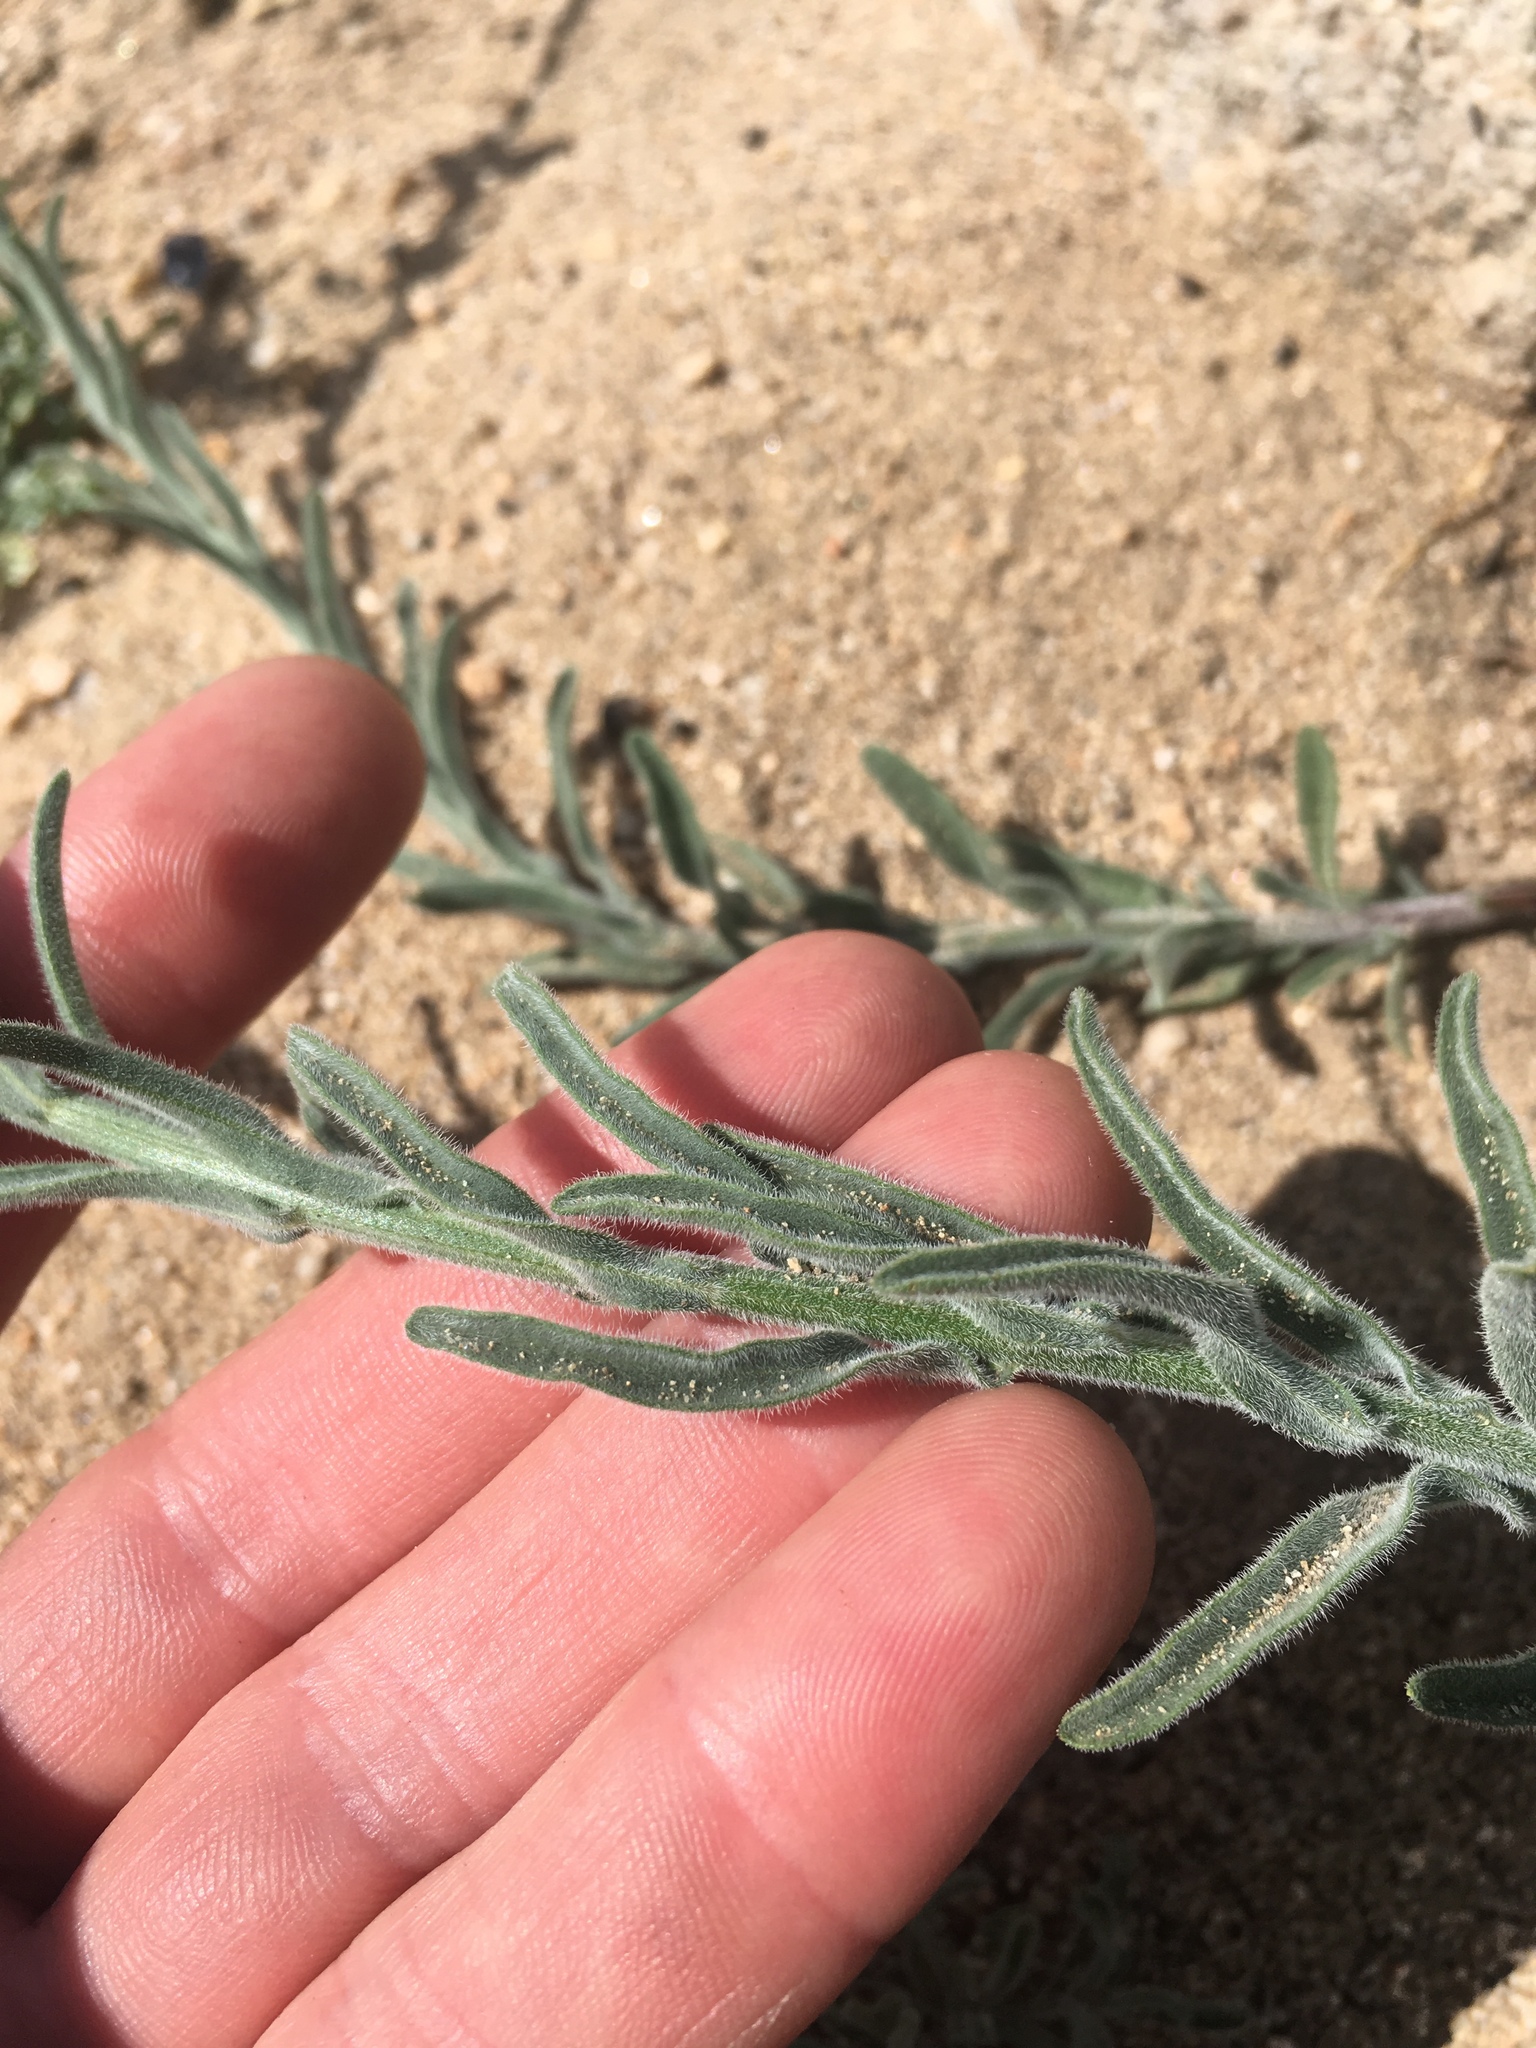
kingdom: Plantae
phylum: Tracheophyta
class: Magnoliopsida
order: Asterales
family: Asteraceae
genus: Erigeron
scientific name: Erigeron breweri
